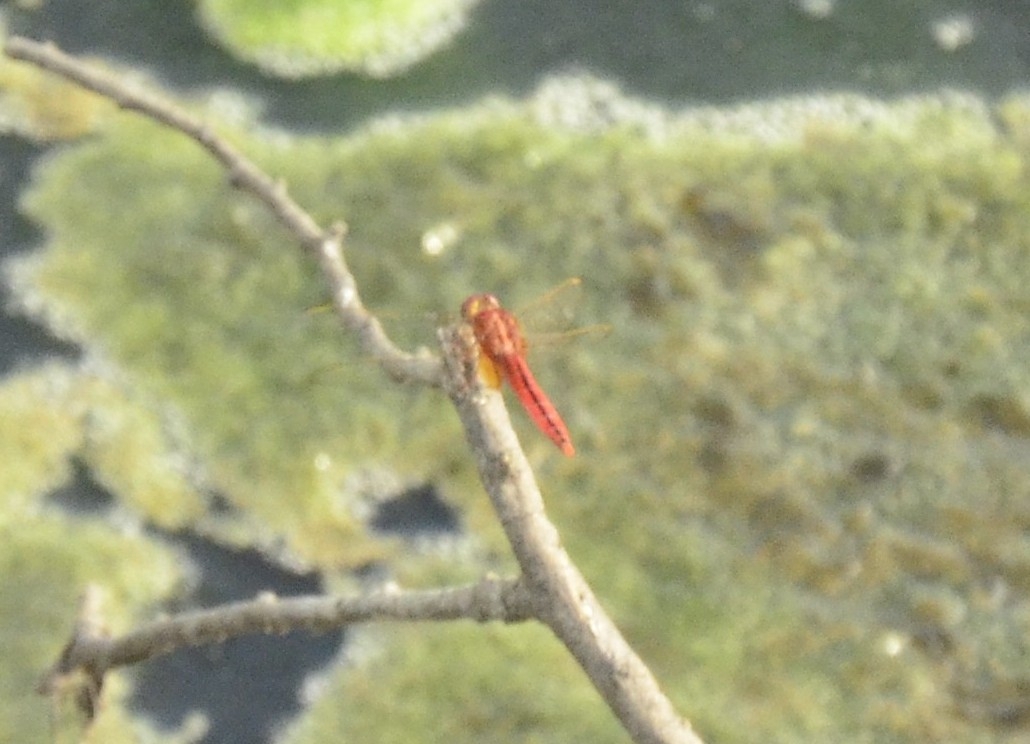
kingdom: Animalia
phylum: Arthropoda
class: Insecta
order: Odonata
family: Libellulidae
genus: Crocothemis
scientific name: Crocothemis servilia
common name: Scarlet skimmer
